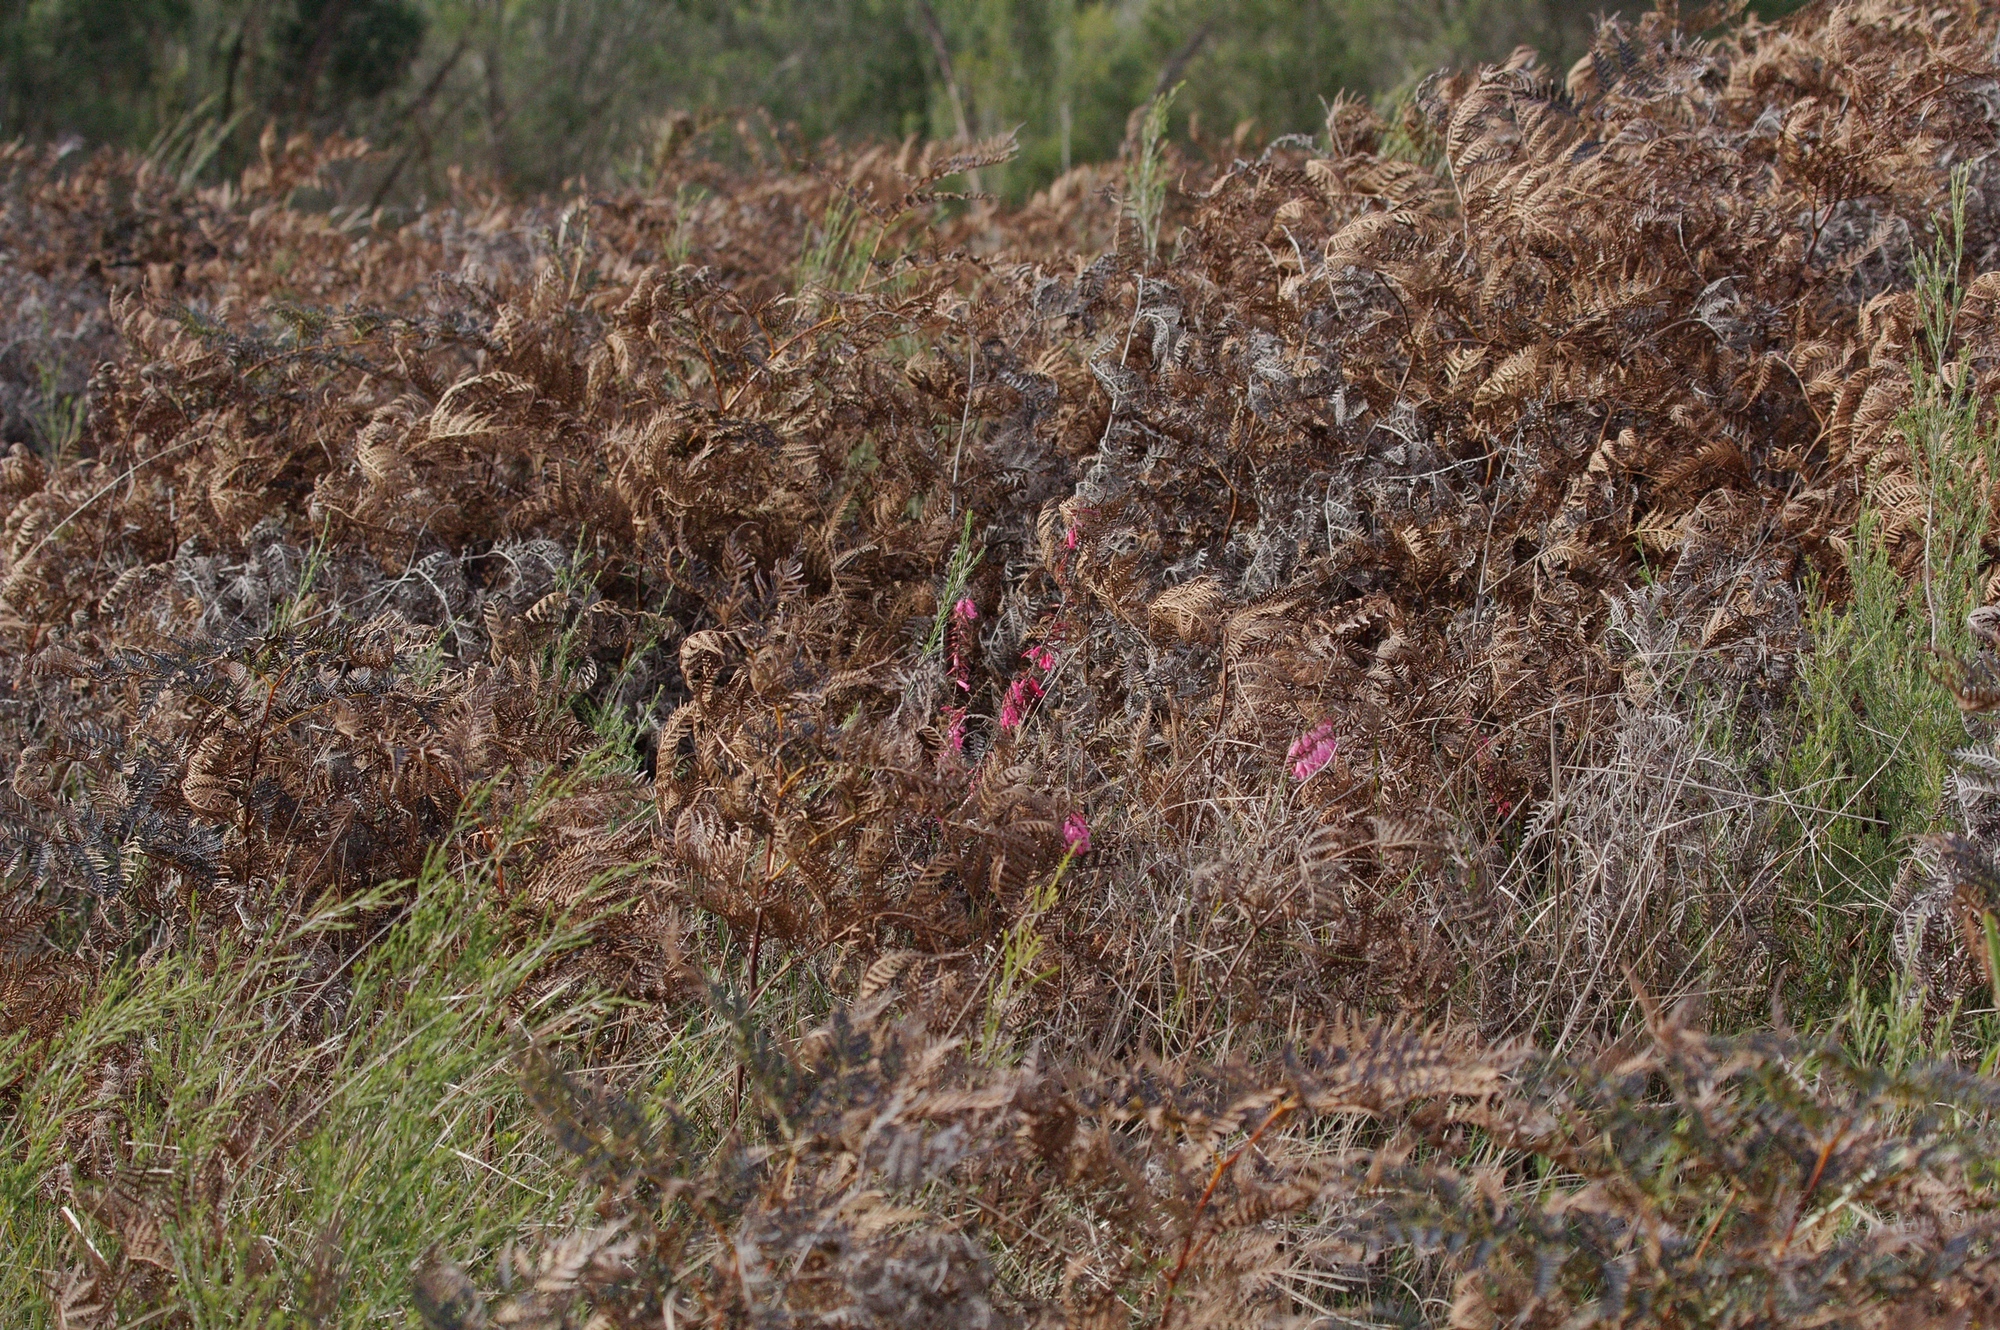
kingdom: Plantae
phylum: Tracheophyta
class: Magnoliopsida
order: Ericales
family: Ericaceae
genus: Epacris
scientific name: Epacris impressa
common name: Common-heath
